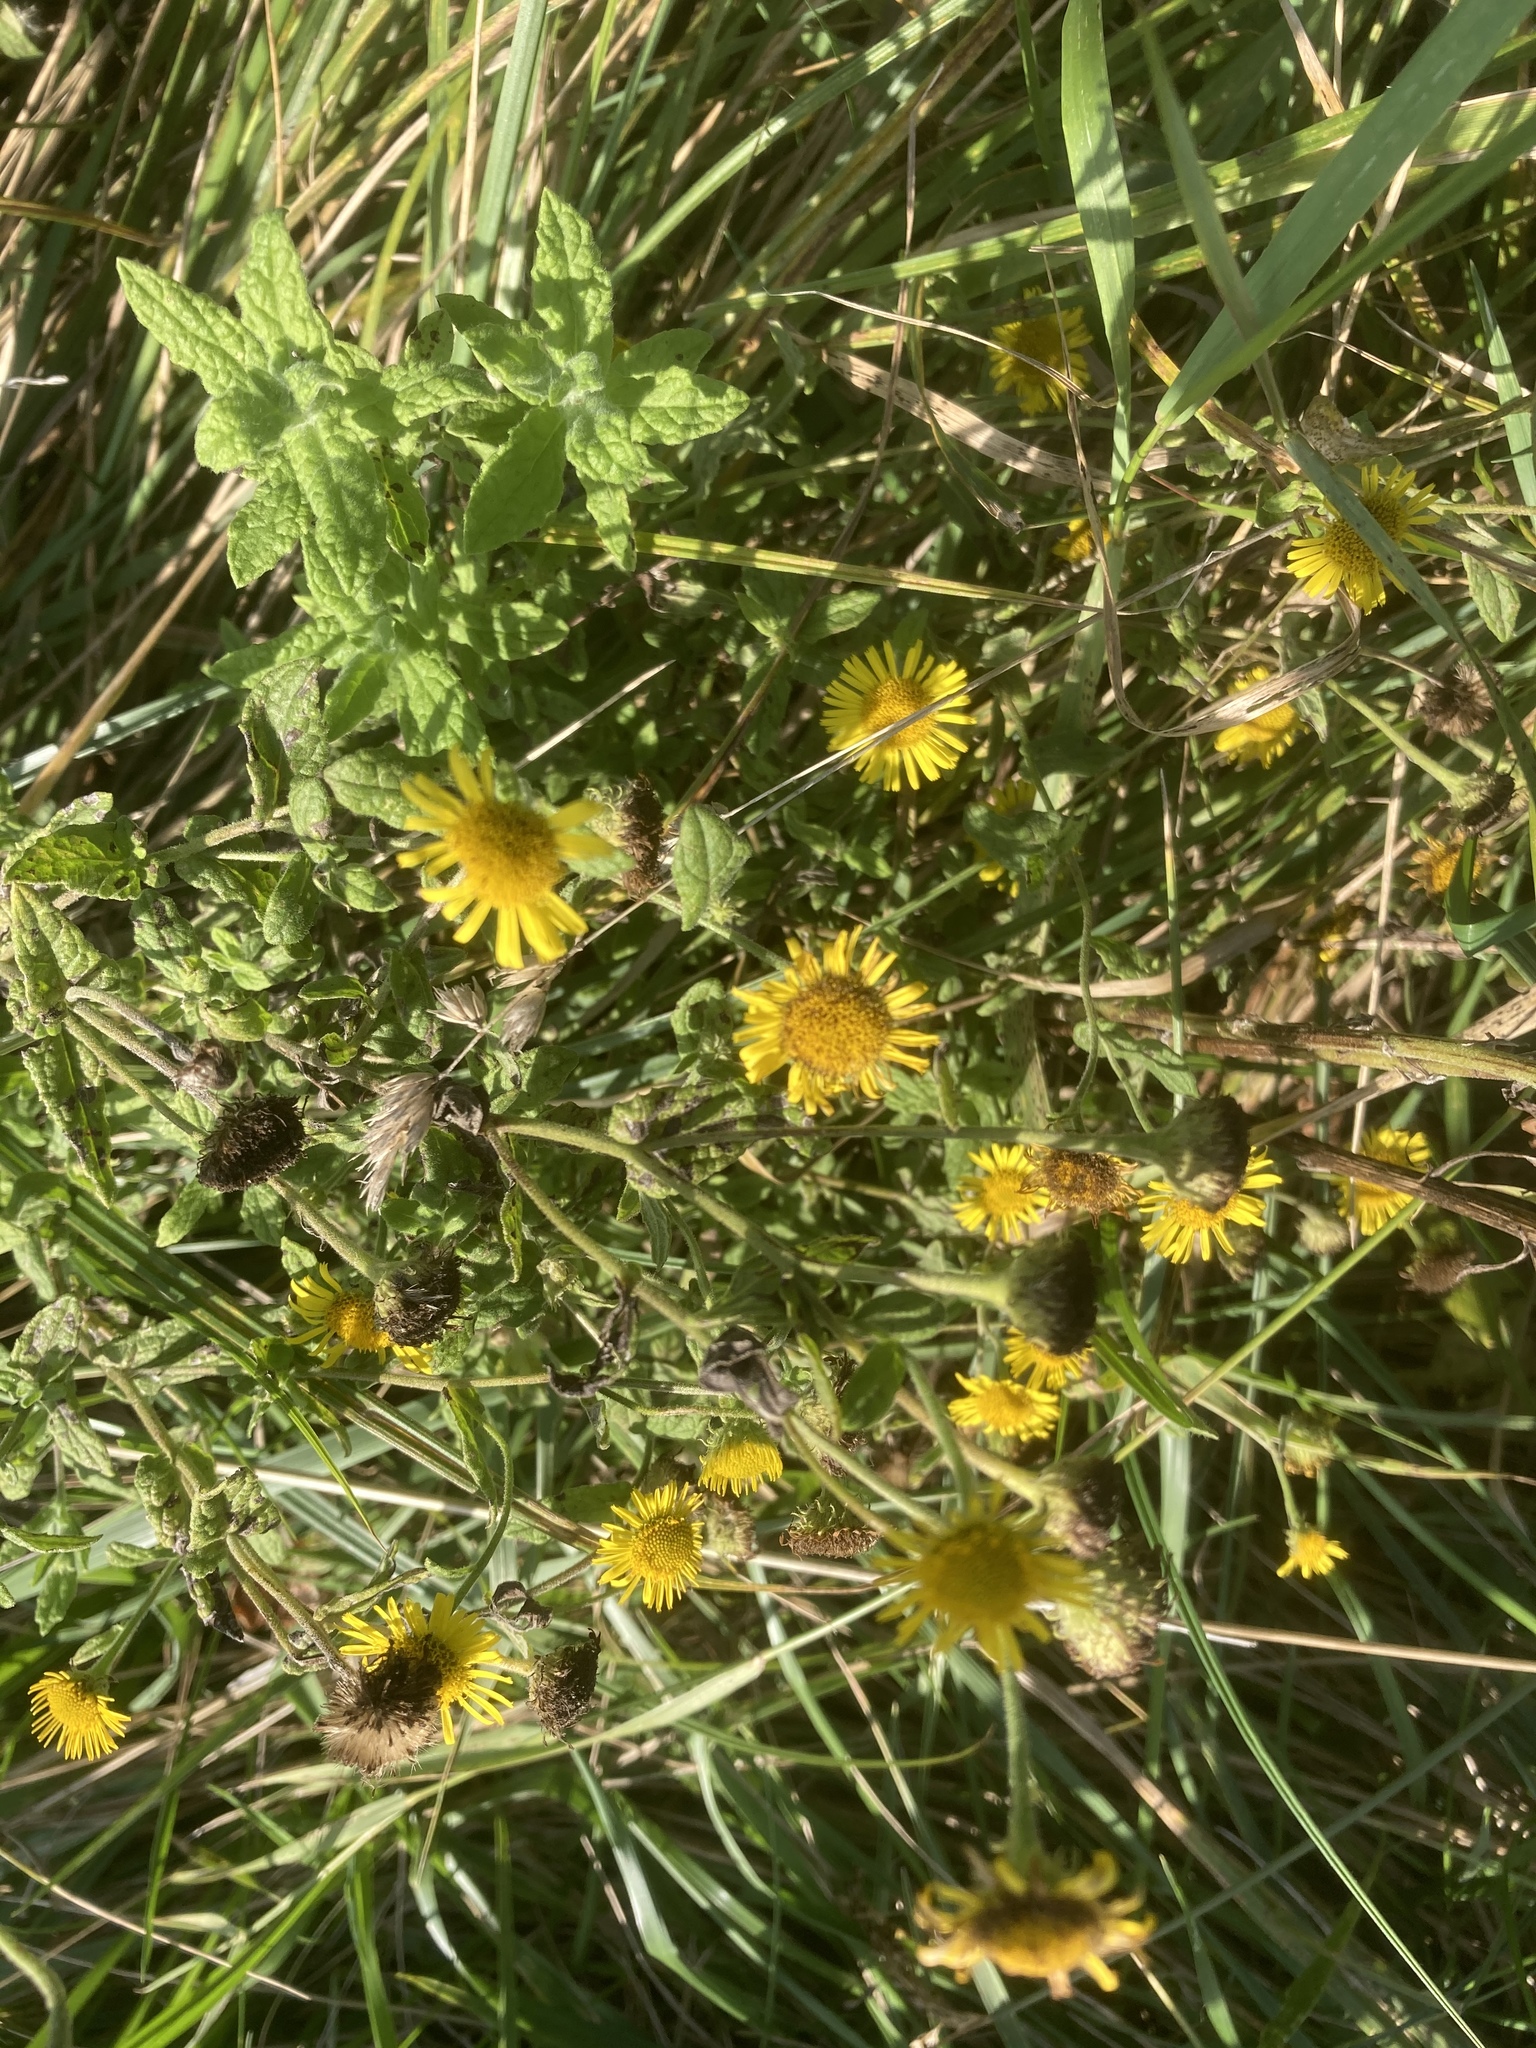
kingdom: Plantae
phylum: Tracheophyta
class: Magnoliopsida
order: Asterales
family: Asteraceae
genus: Pulicaria
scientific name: Pulicaria dysenterica
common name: Common fleabane
